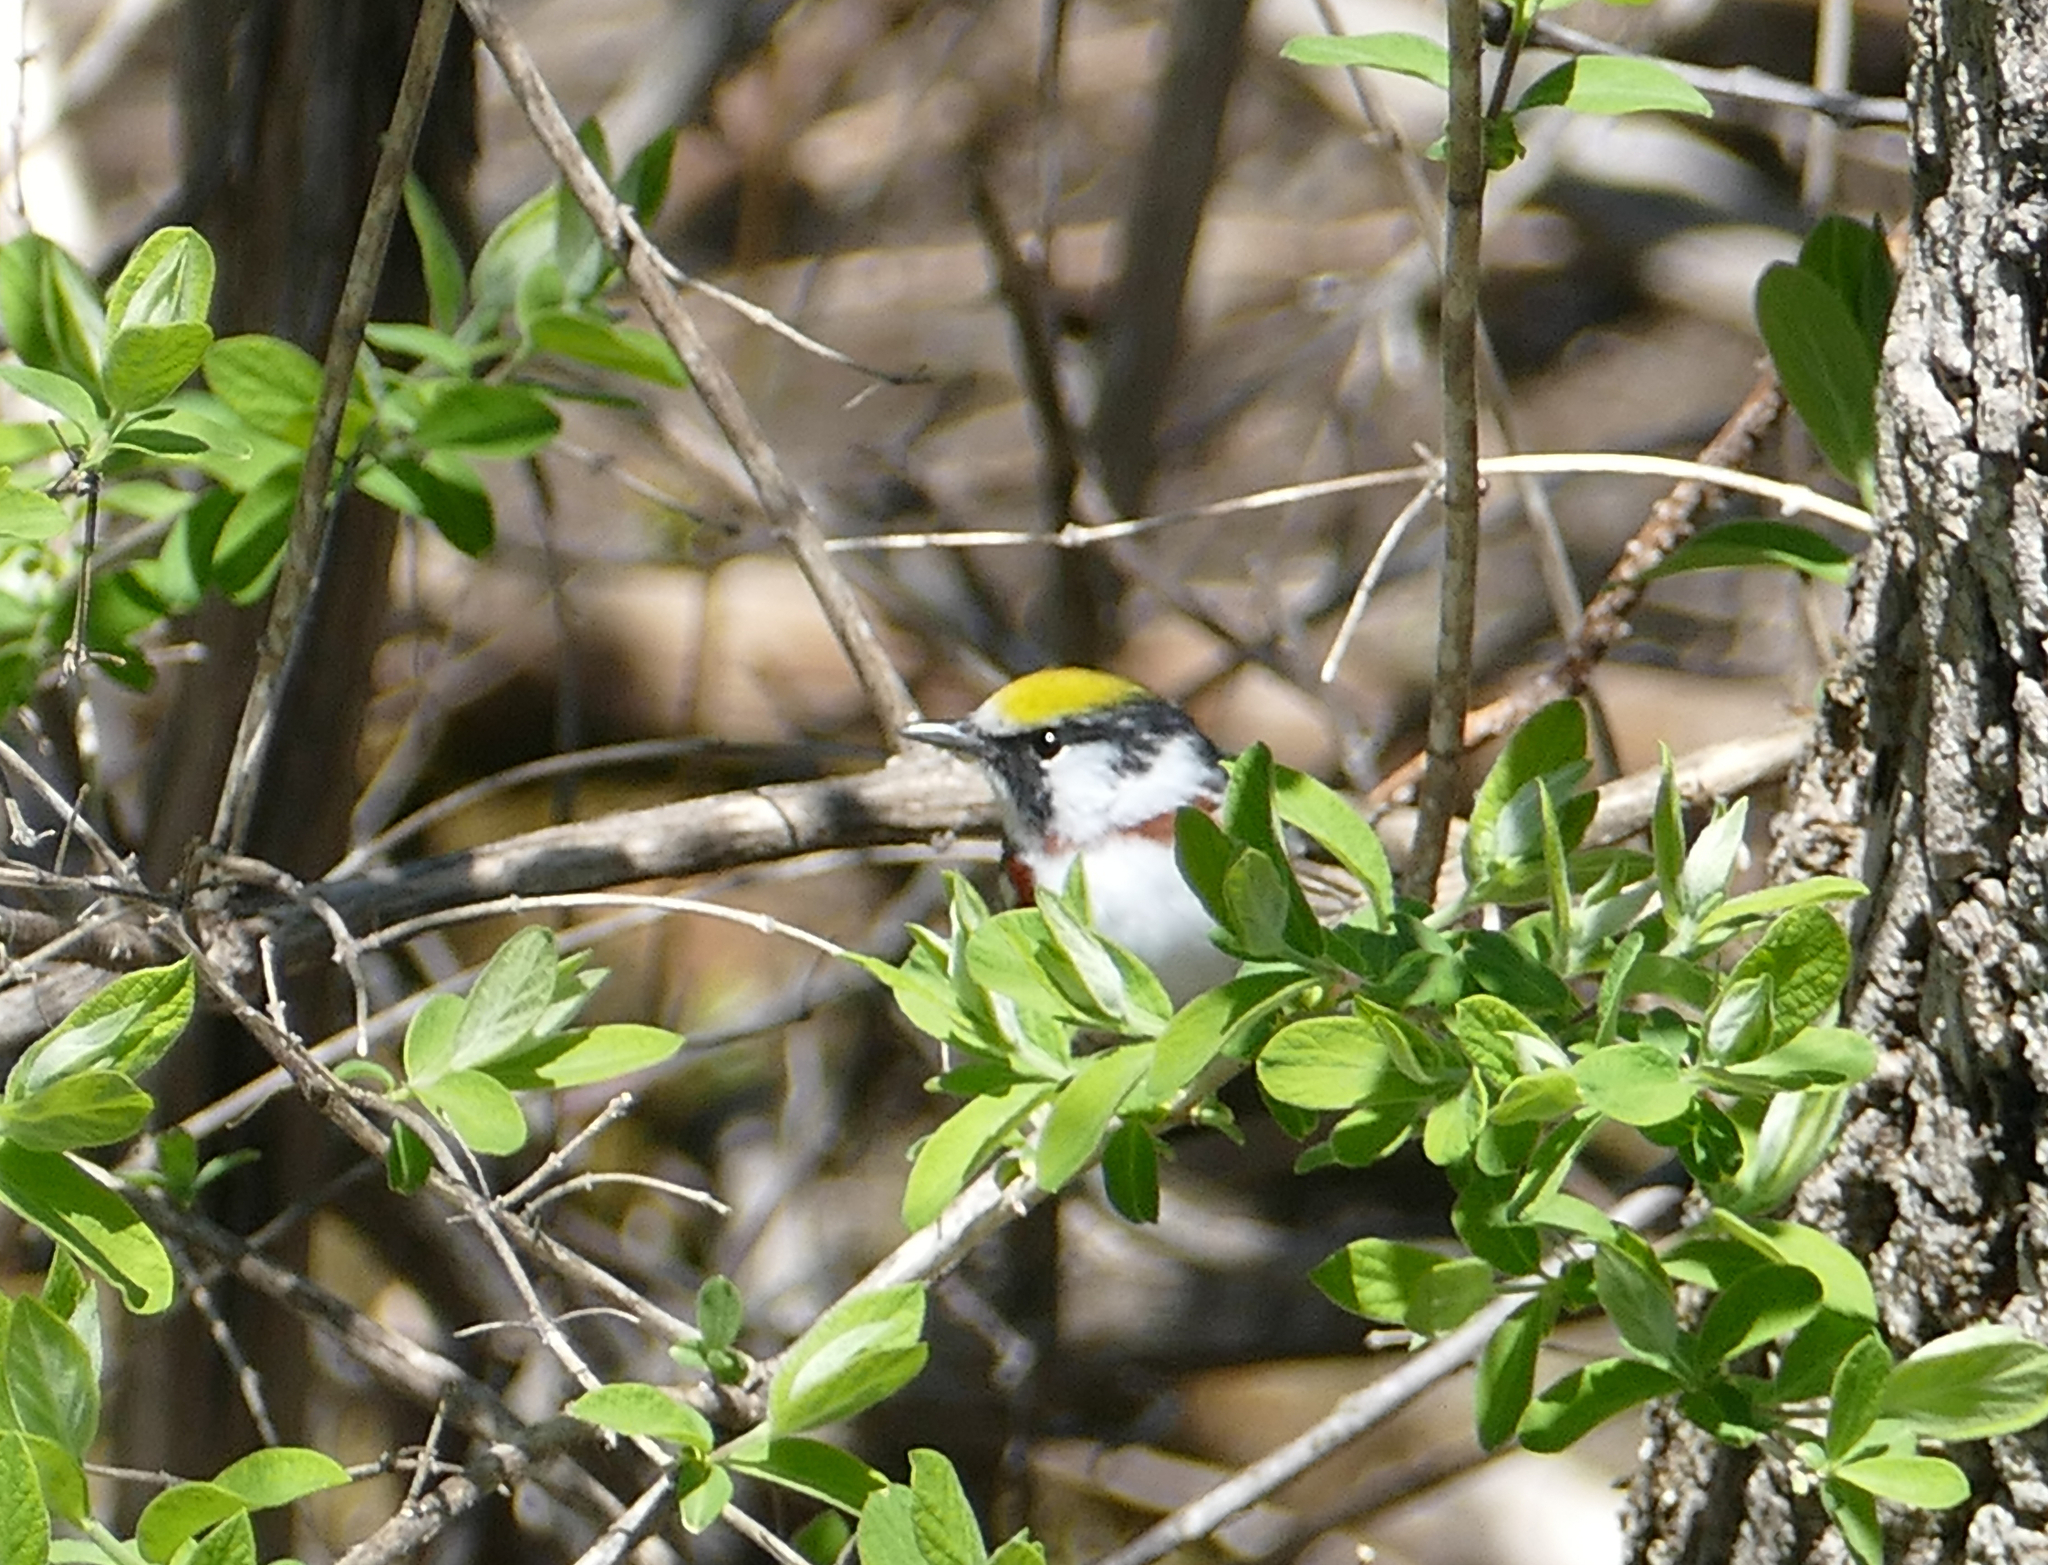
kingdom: Animalia
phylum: Chordata
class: Aves
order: Passeriformes
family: Parulidae
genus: Setophaga
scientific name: Setophaga pensylvanica
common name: Chestnut-sided warbler
